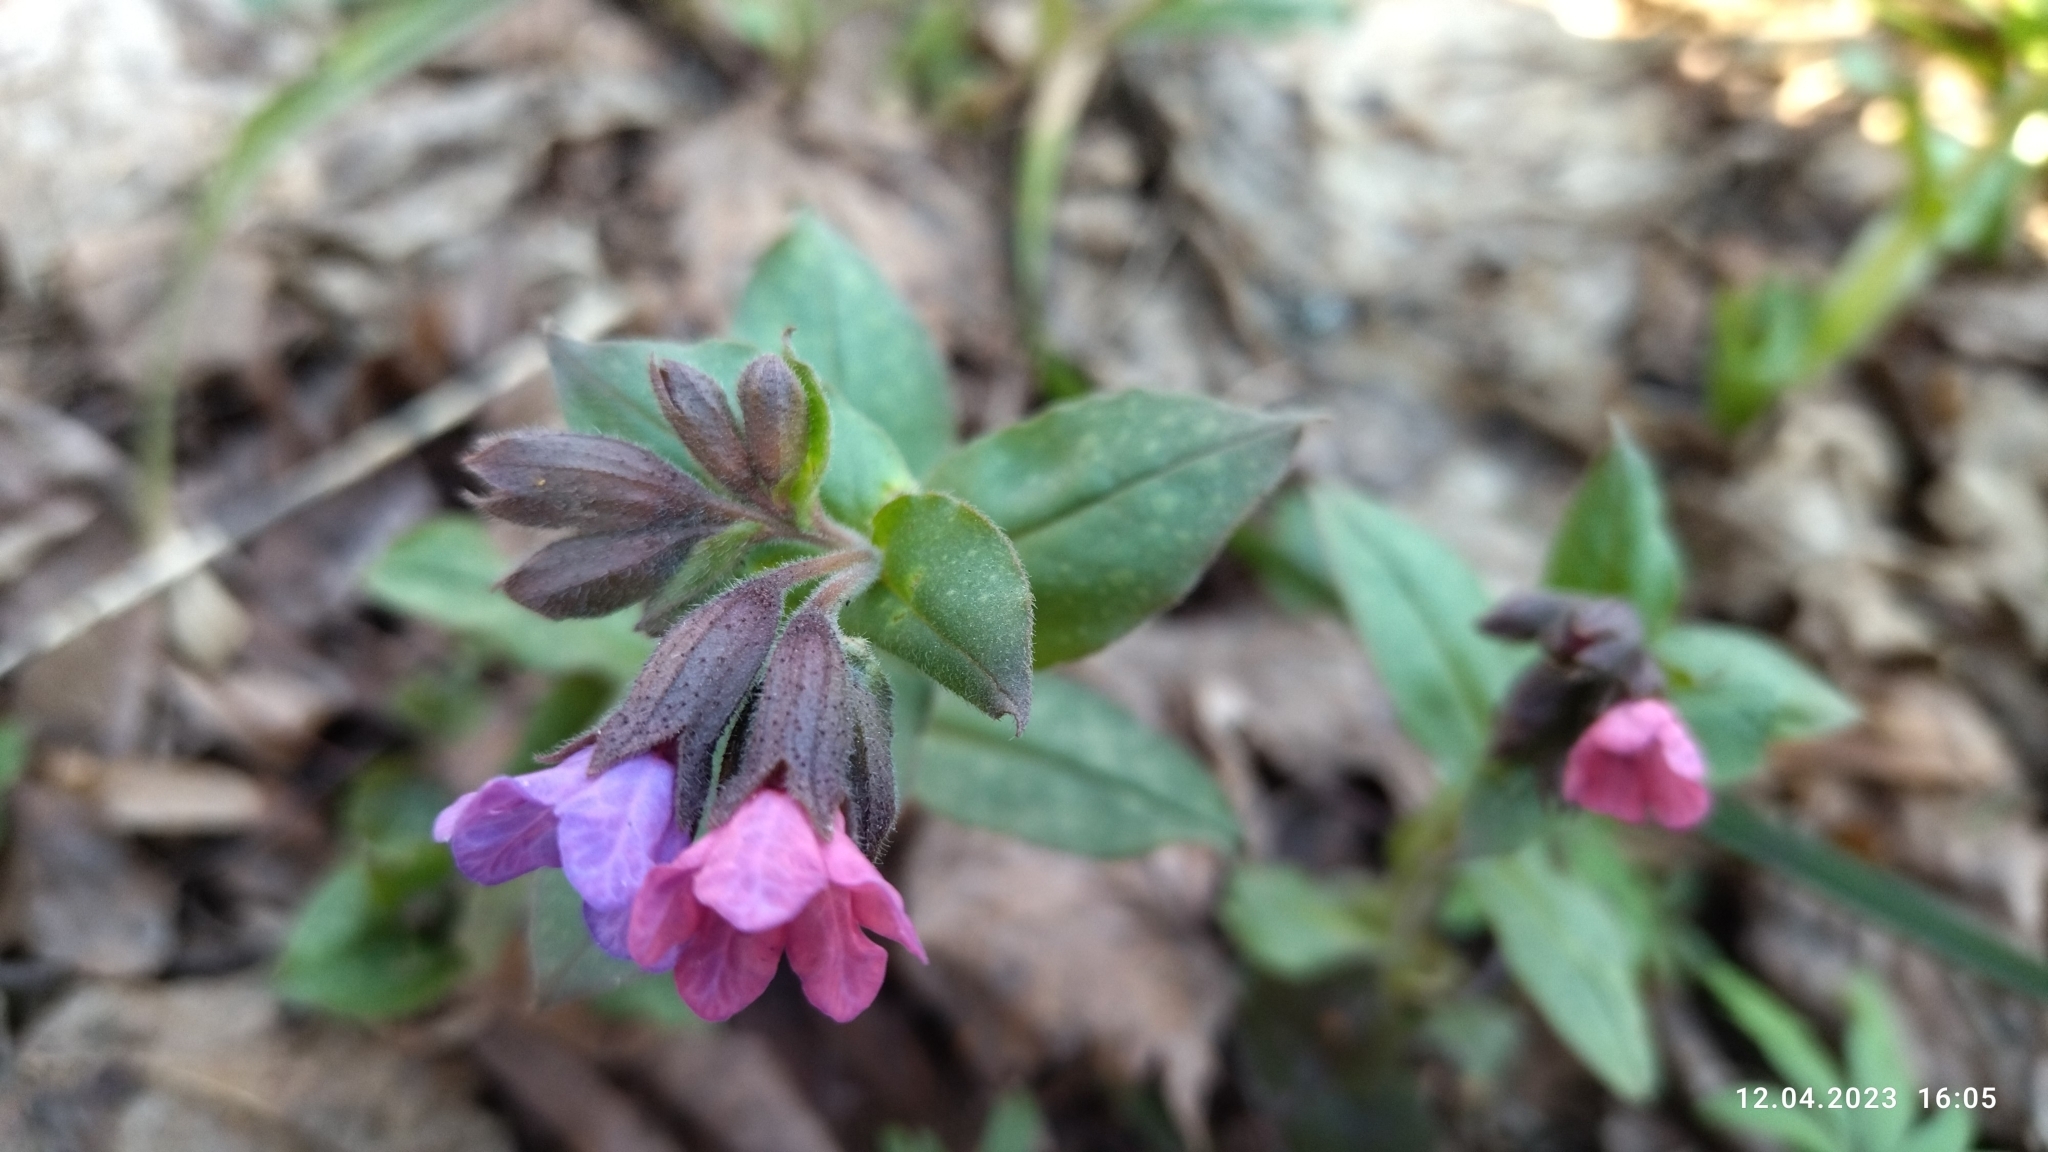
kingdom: Plantae
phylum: Tracheophyta
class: Magnoliopsida
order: Boraginales
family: Boraginaceae
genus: Pulmonaria
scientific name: Pulmonaria obscura
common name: Suffolk lungwort
